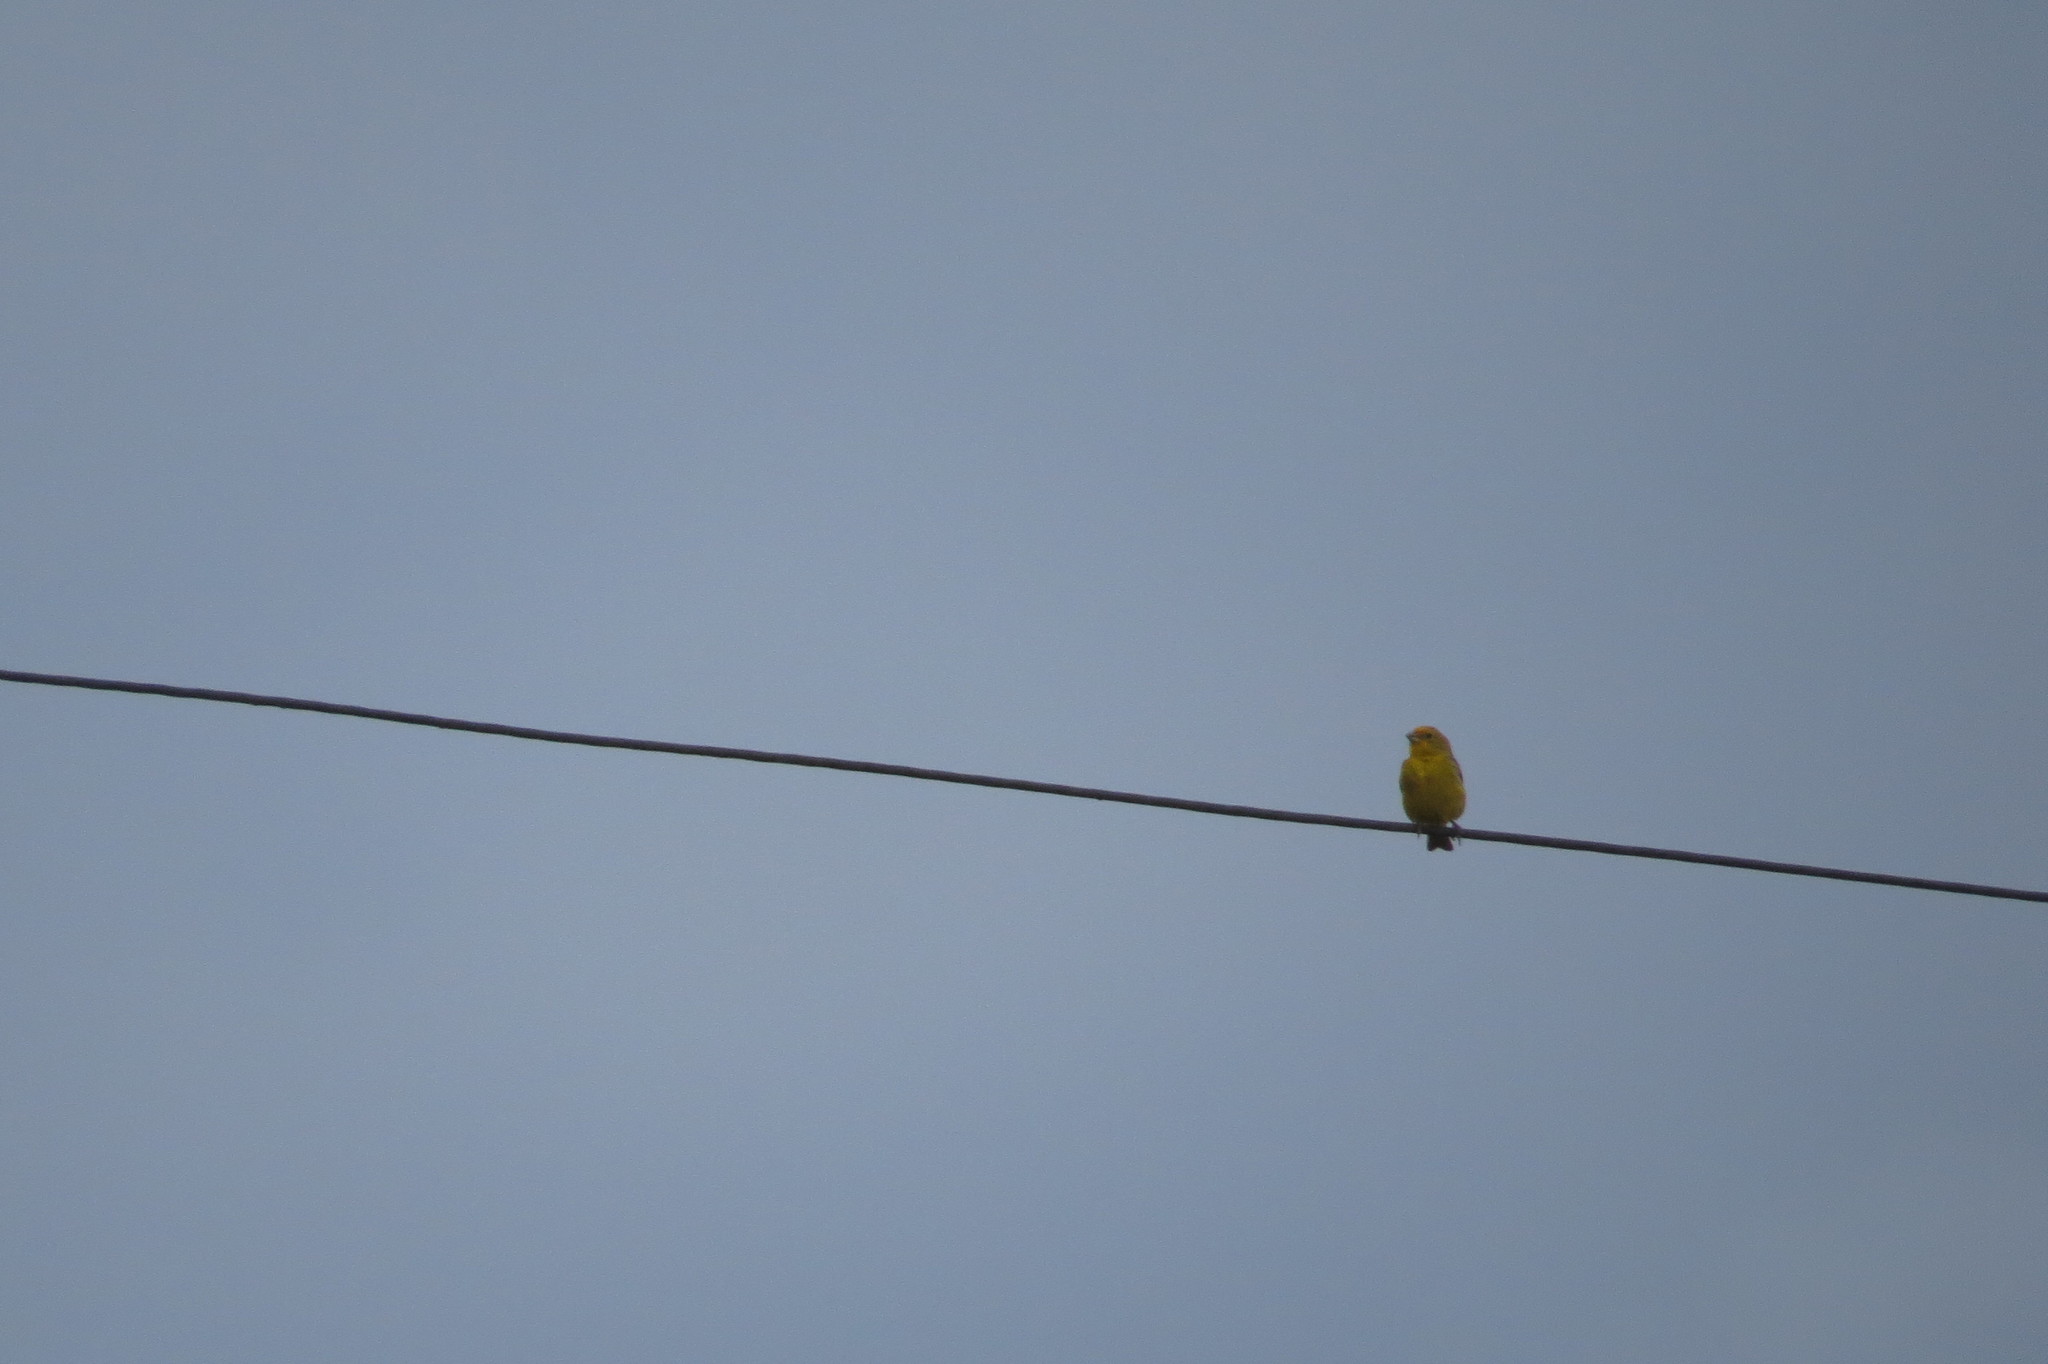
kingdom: Animalia
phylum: Chordata
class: Aves
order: Passeriformes
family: Thraupidae
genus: Sicalis
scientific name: Sicalis flaveola
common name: Saffron finch
